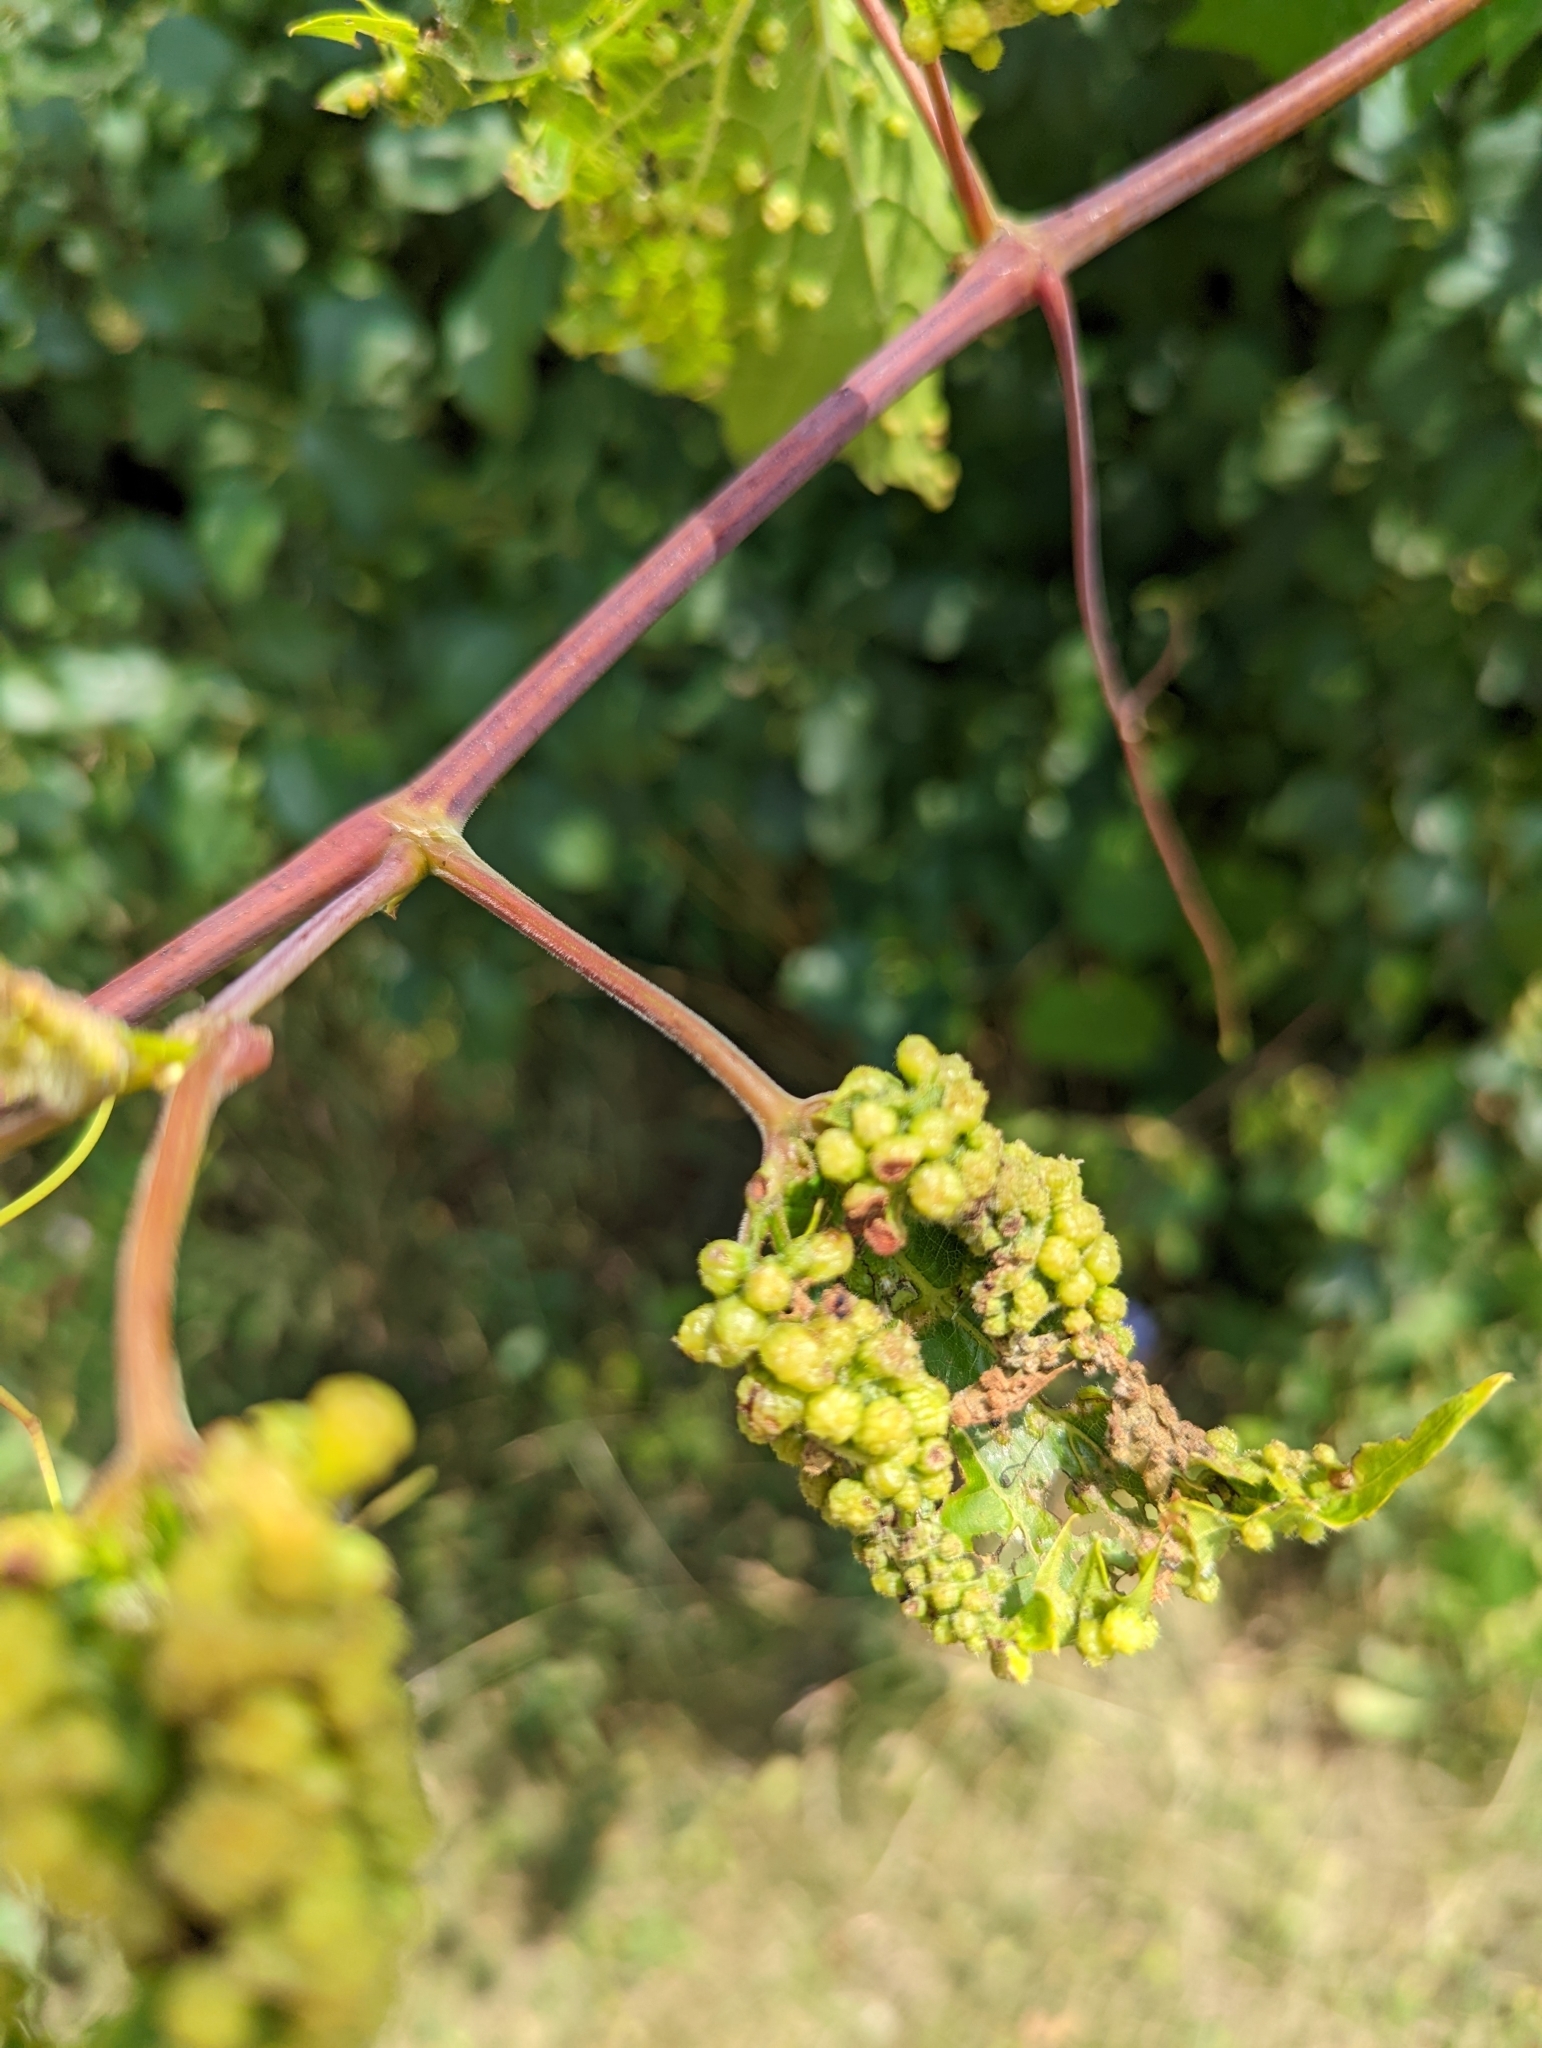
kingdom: Animalia
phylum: Arthropoda
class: Insecta
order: Hemiptera
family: Phylloxeridae
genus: Daktulosphaira
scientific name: Daktulosphaira vitifoliae
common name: Grape phylloxera
